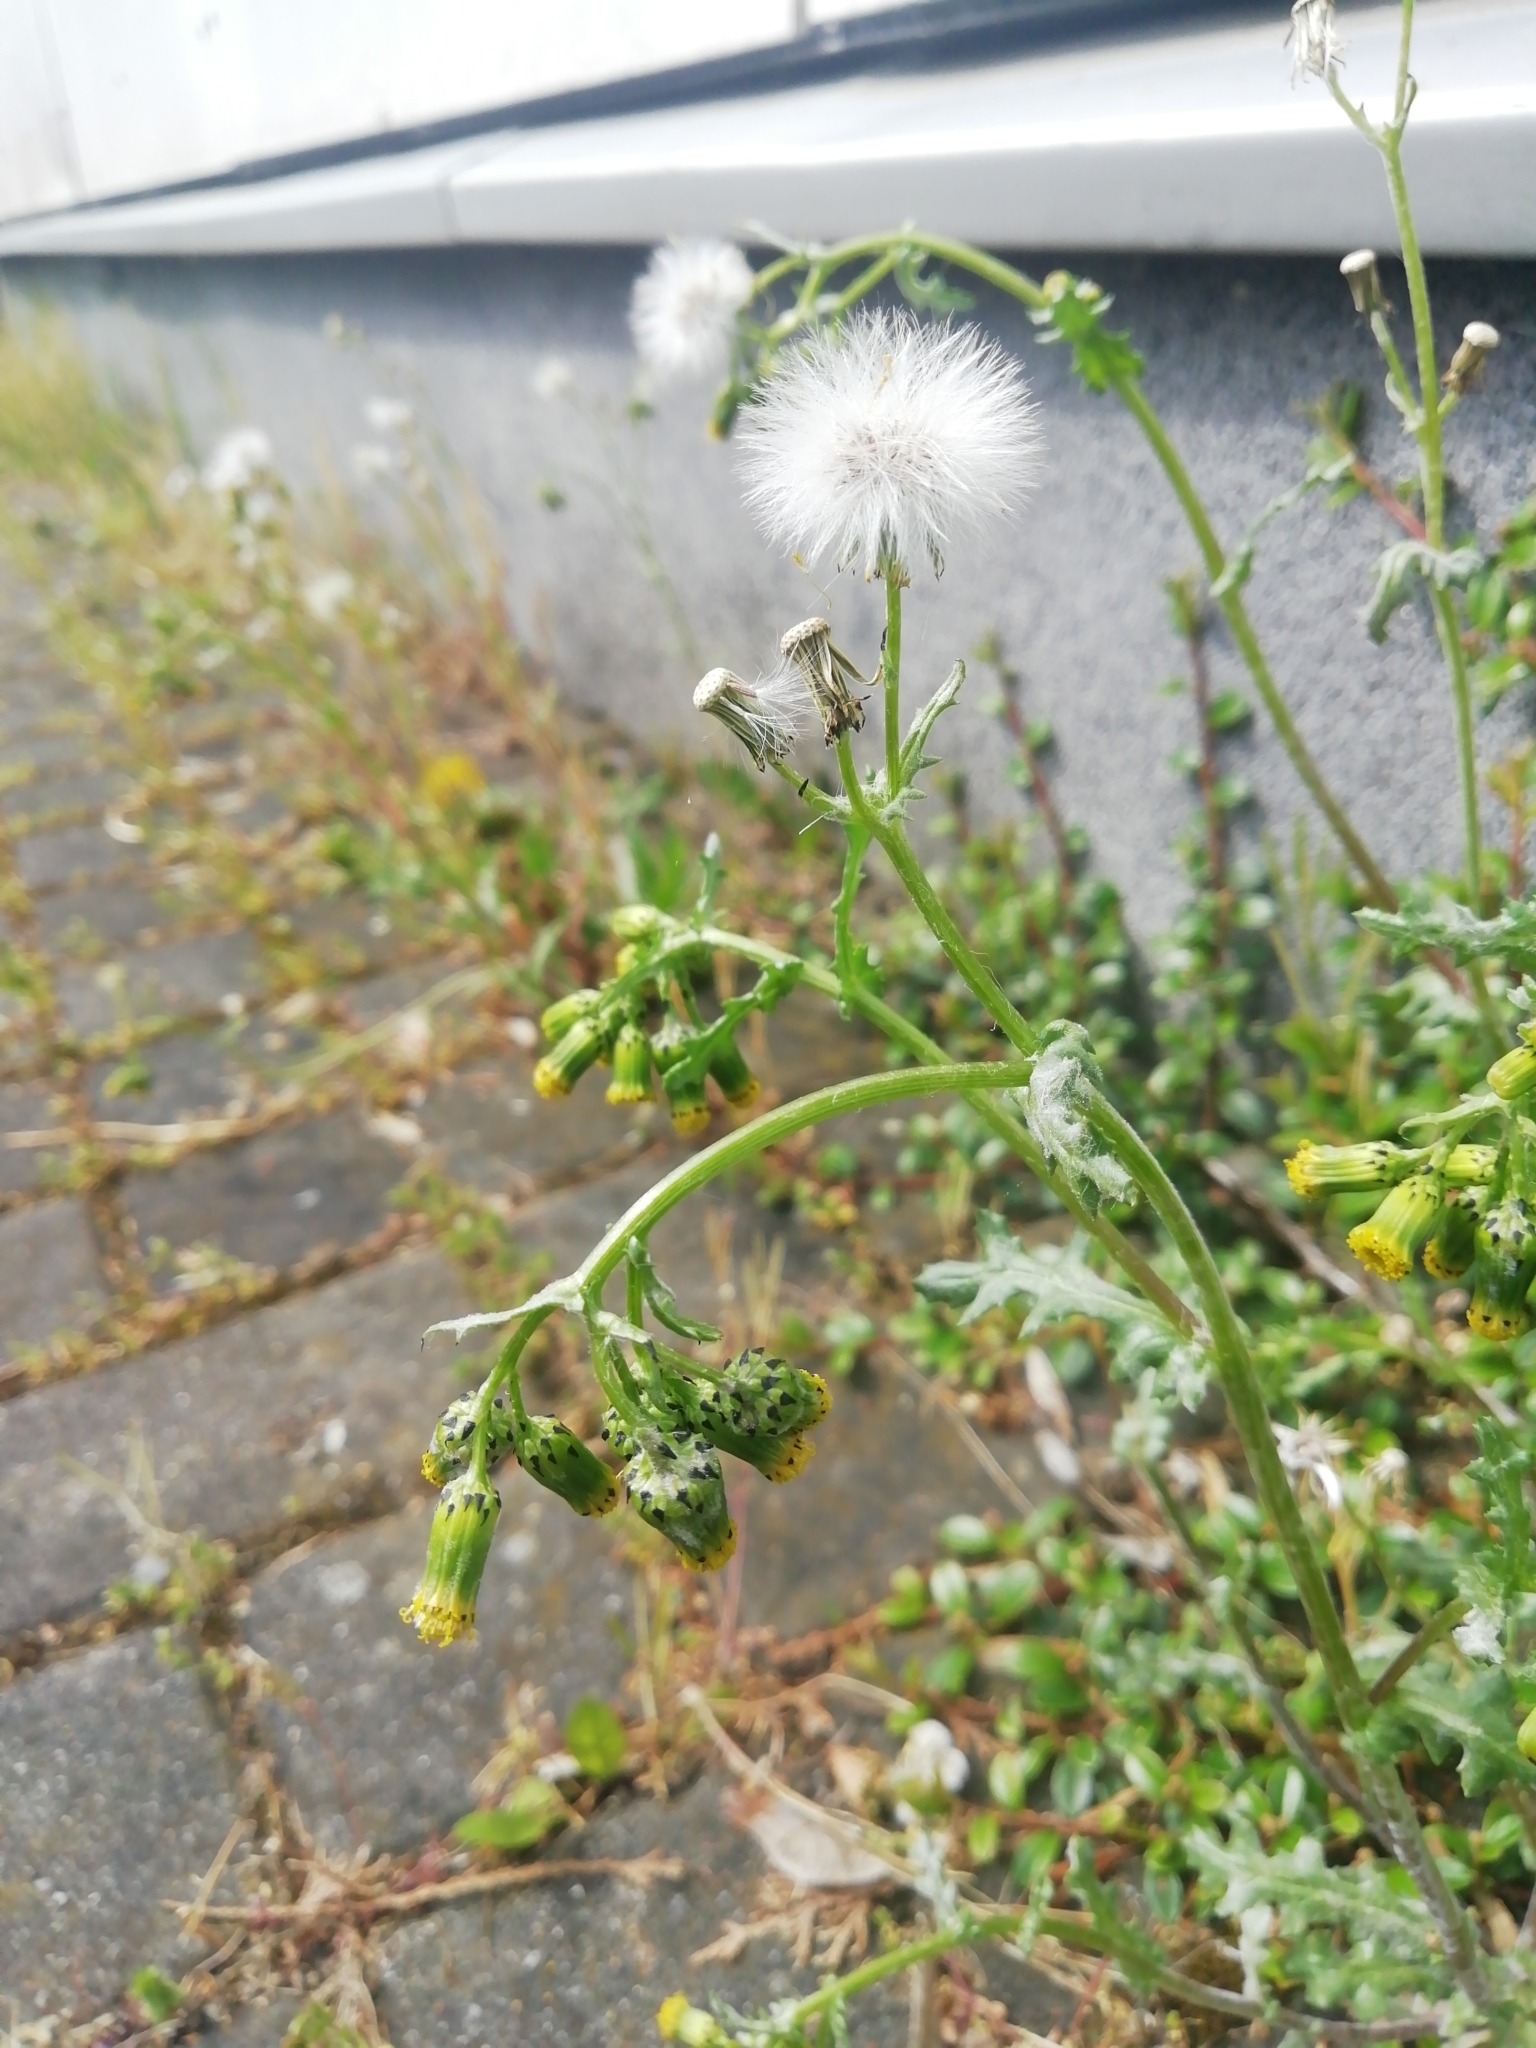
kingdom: Plantae
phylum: Tracheophyta
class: Magnoliopsida
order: Asterales
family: Asteraceae
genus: Senecio
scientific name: Senecio vulgaris
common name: Old-man-in-the-spring
